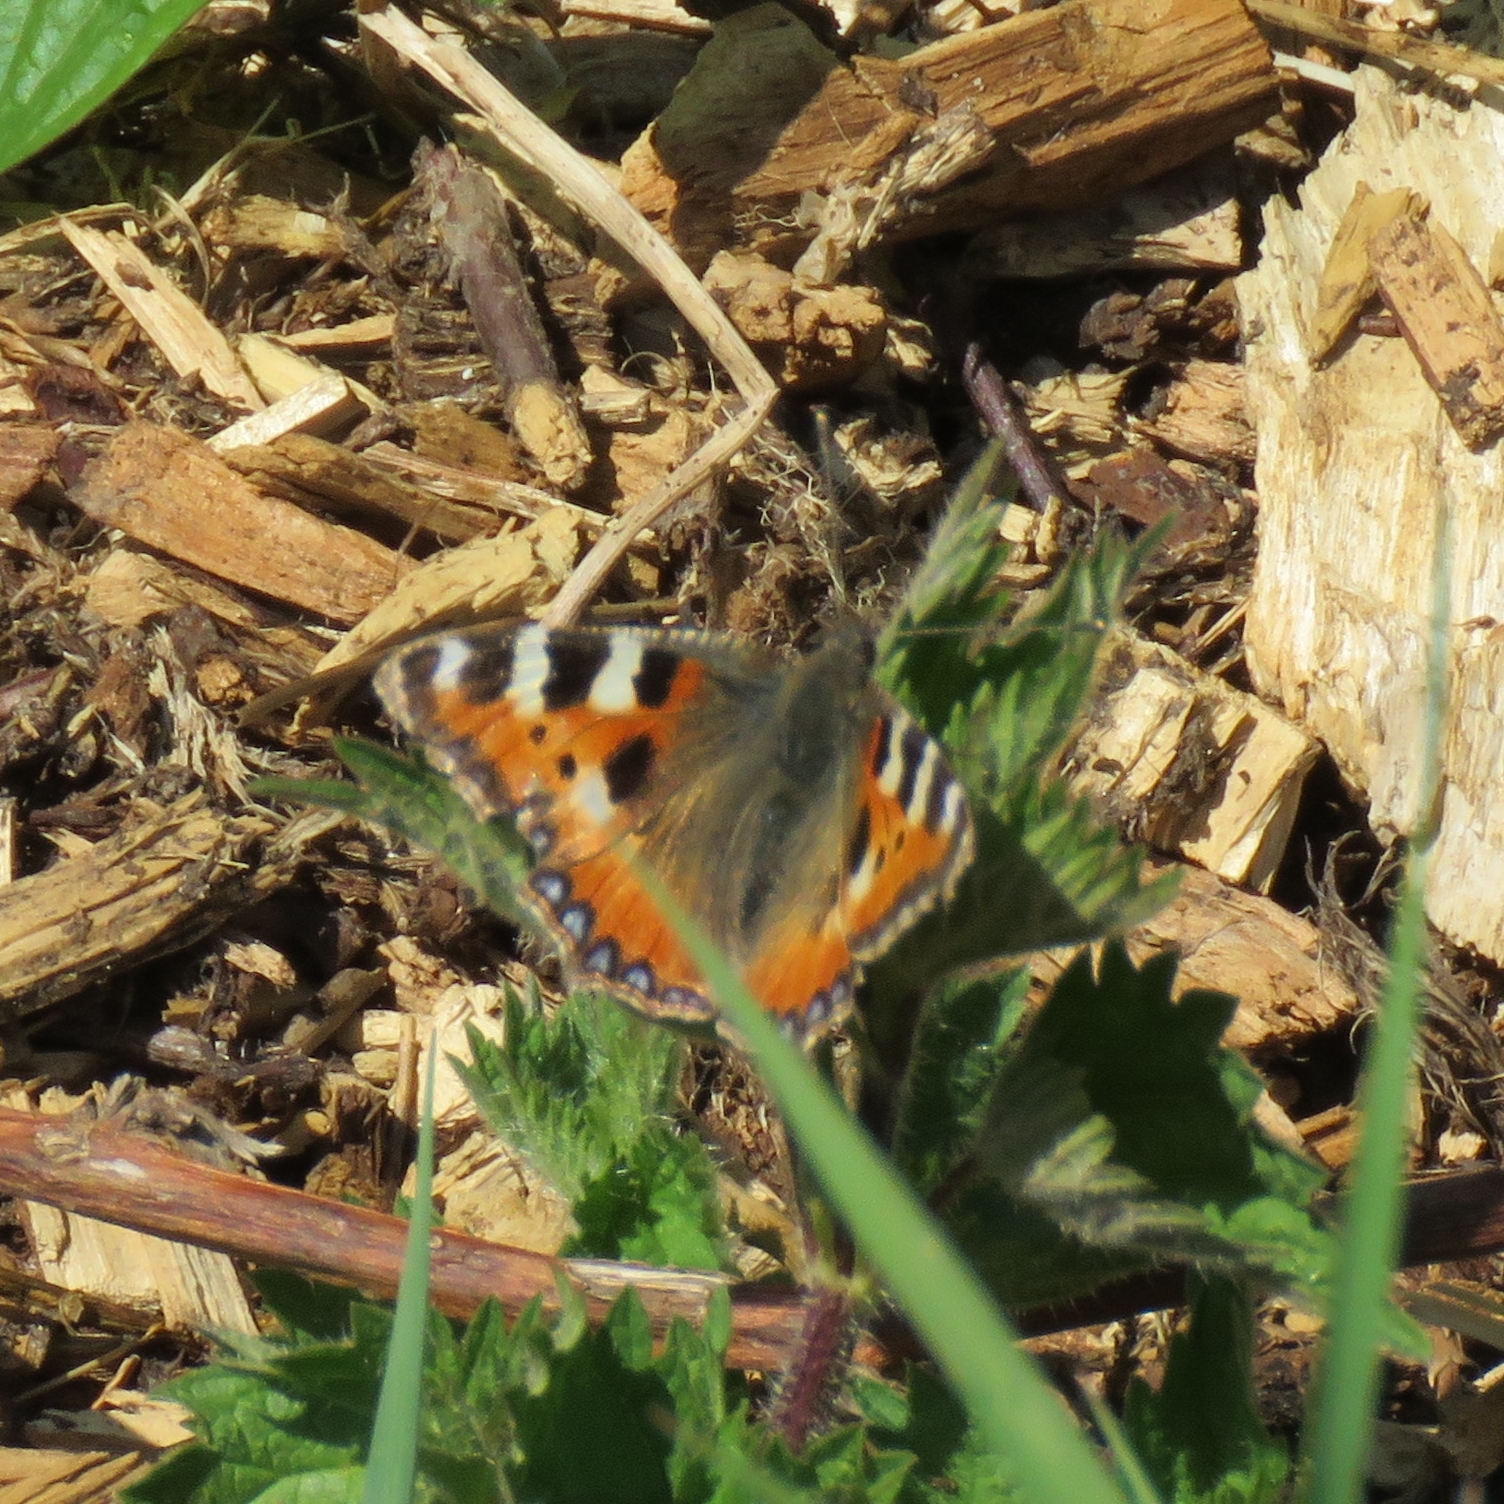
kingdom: Animalia
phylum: Arthropoda
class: Insecta
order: Lepidoptera
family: Nymphalidae
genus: Aglais
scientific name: Aglais urticae
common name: Small tortoiseshell
